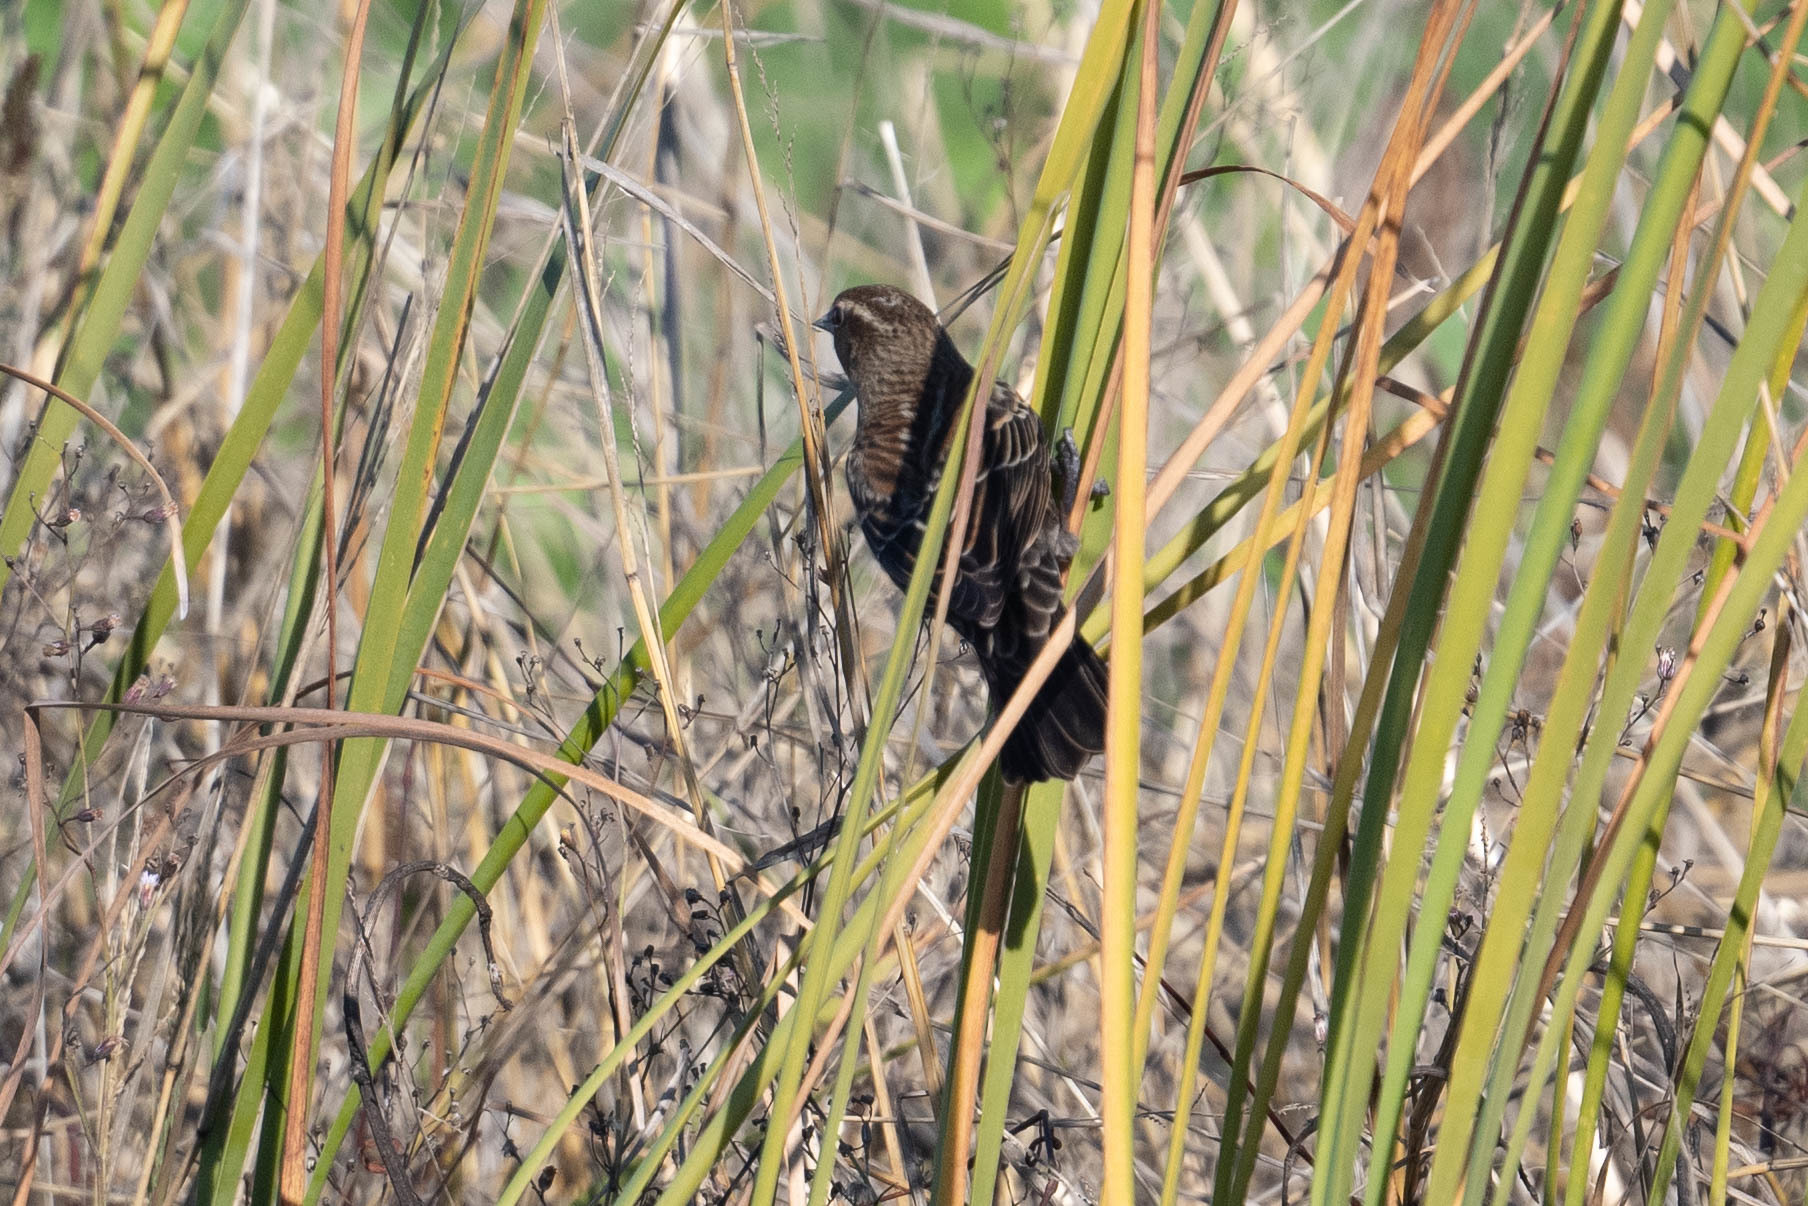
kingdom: Animalia
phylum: Chordata
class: Aves
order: Passeriformes
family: Icteridae
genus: Agelaius
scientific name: Agelaius phoeniceus
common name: Red-winged blackbird
